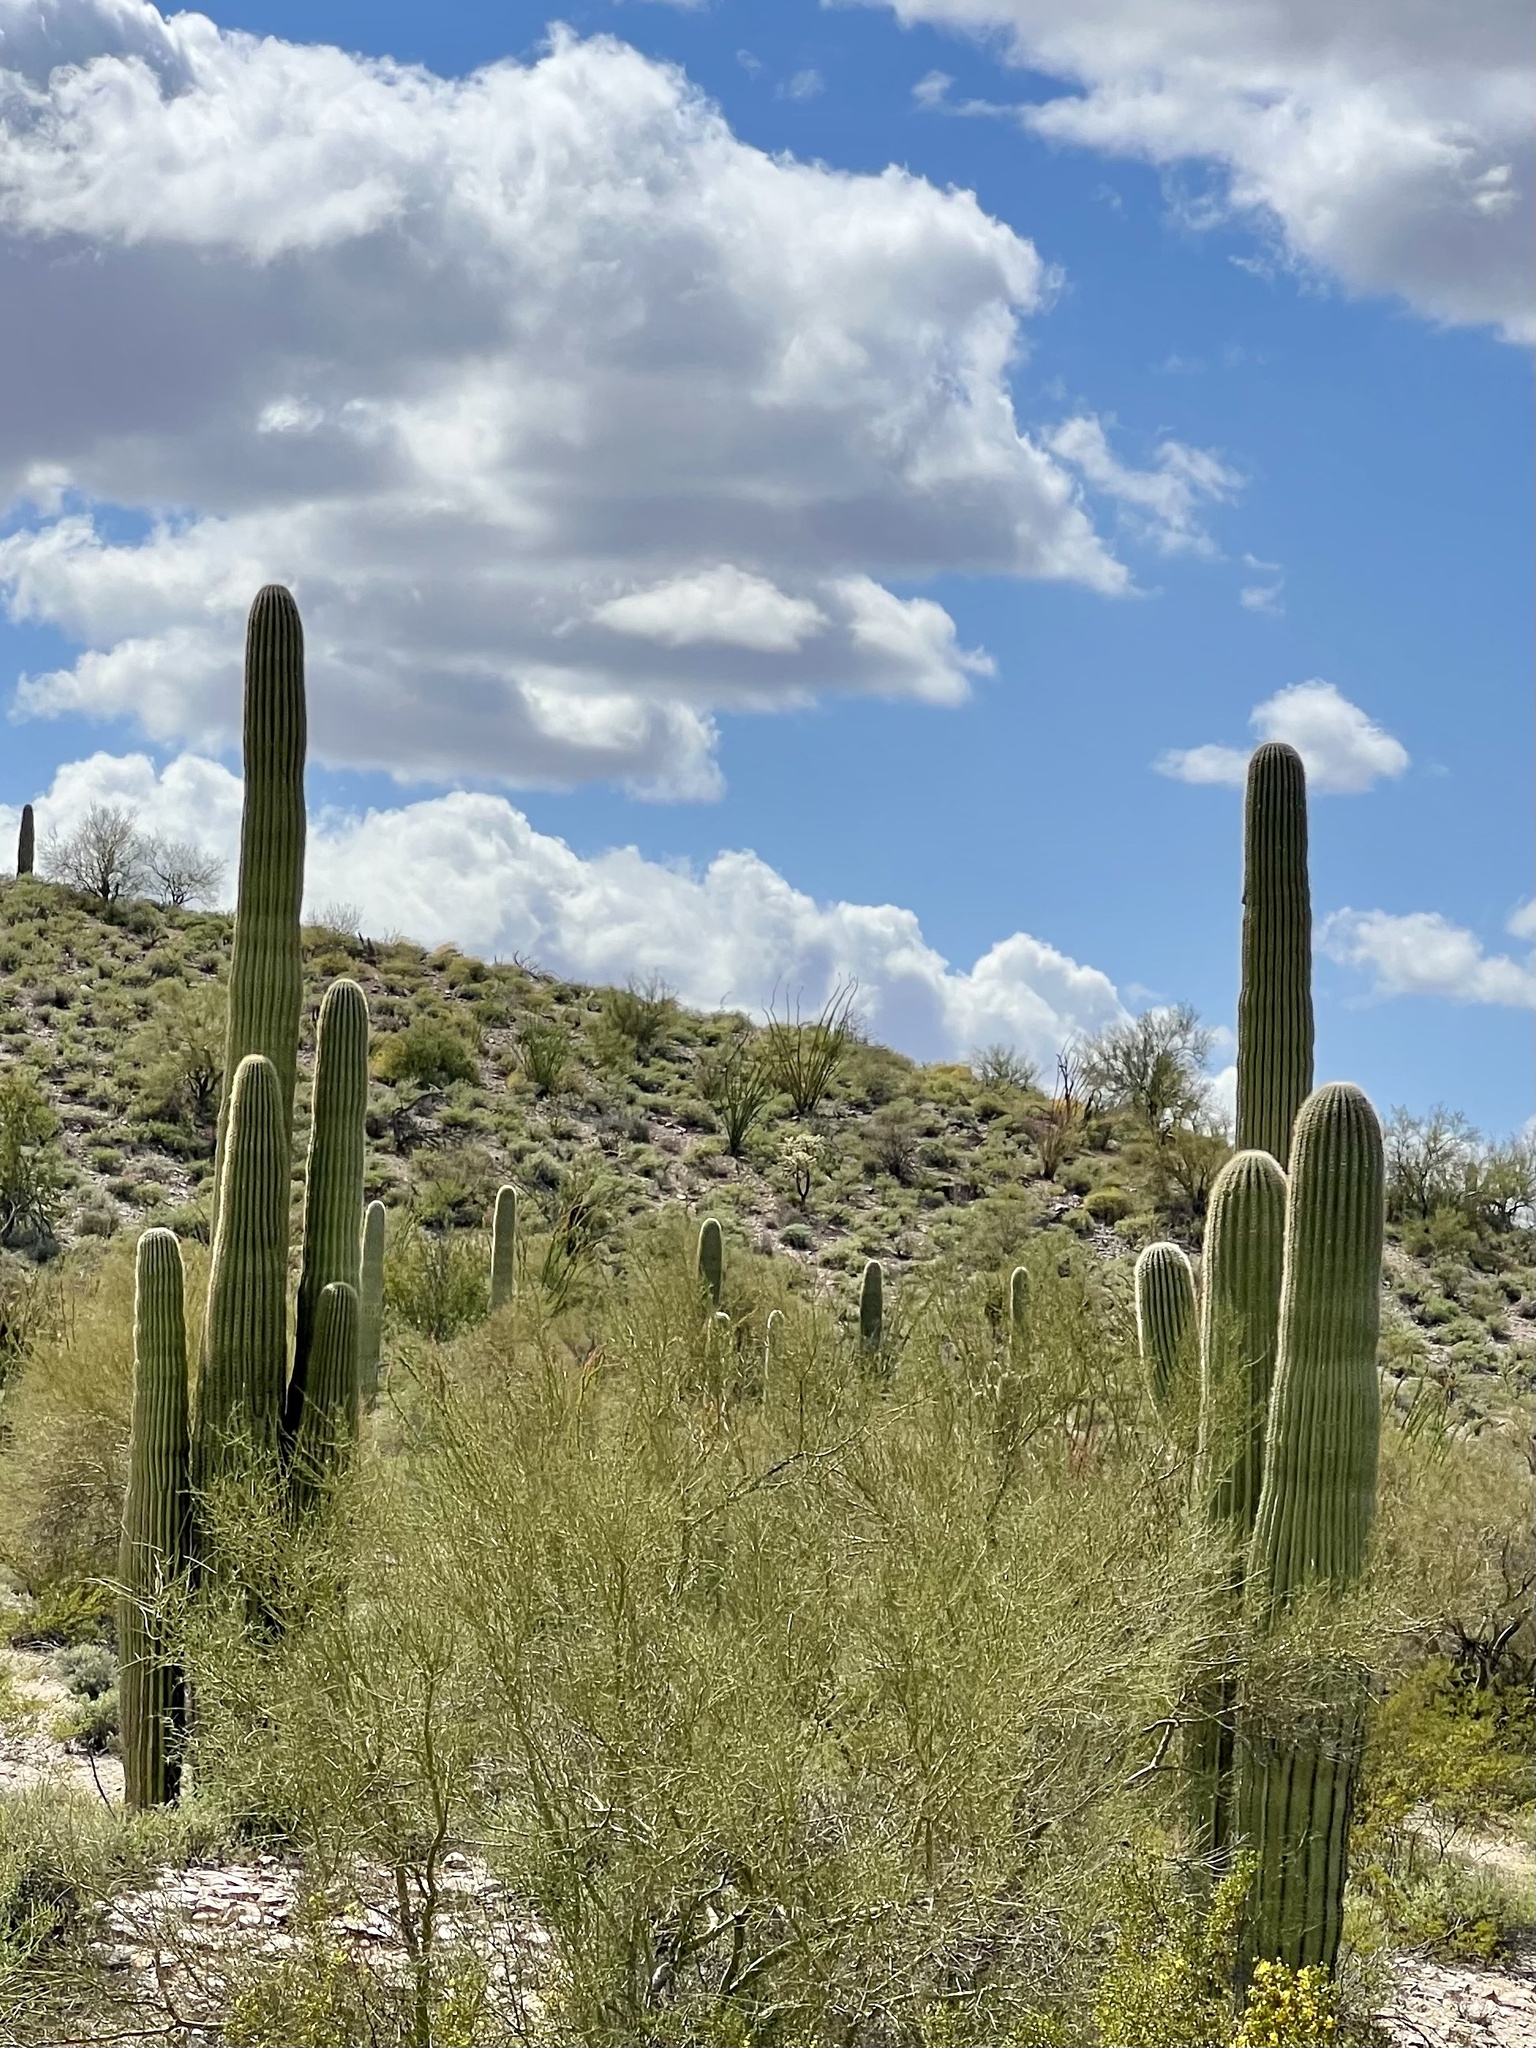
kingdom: Plantae
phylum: Tracheophyta
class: Magnoliopsida
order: Caryophyllales
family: Cactaceae
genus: Carnegiea
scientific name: Carnegiea gigantea
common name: Saguaro
